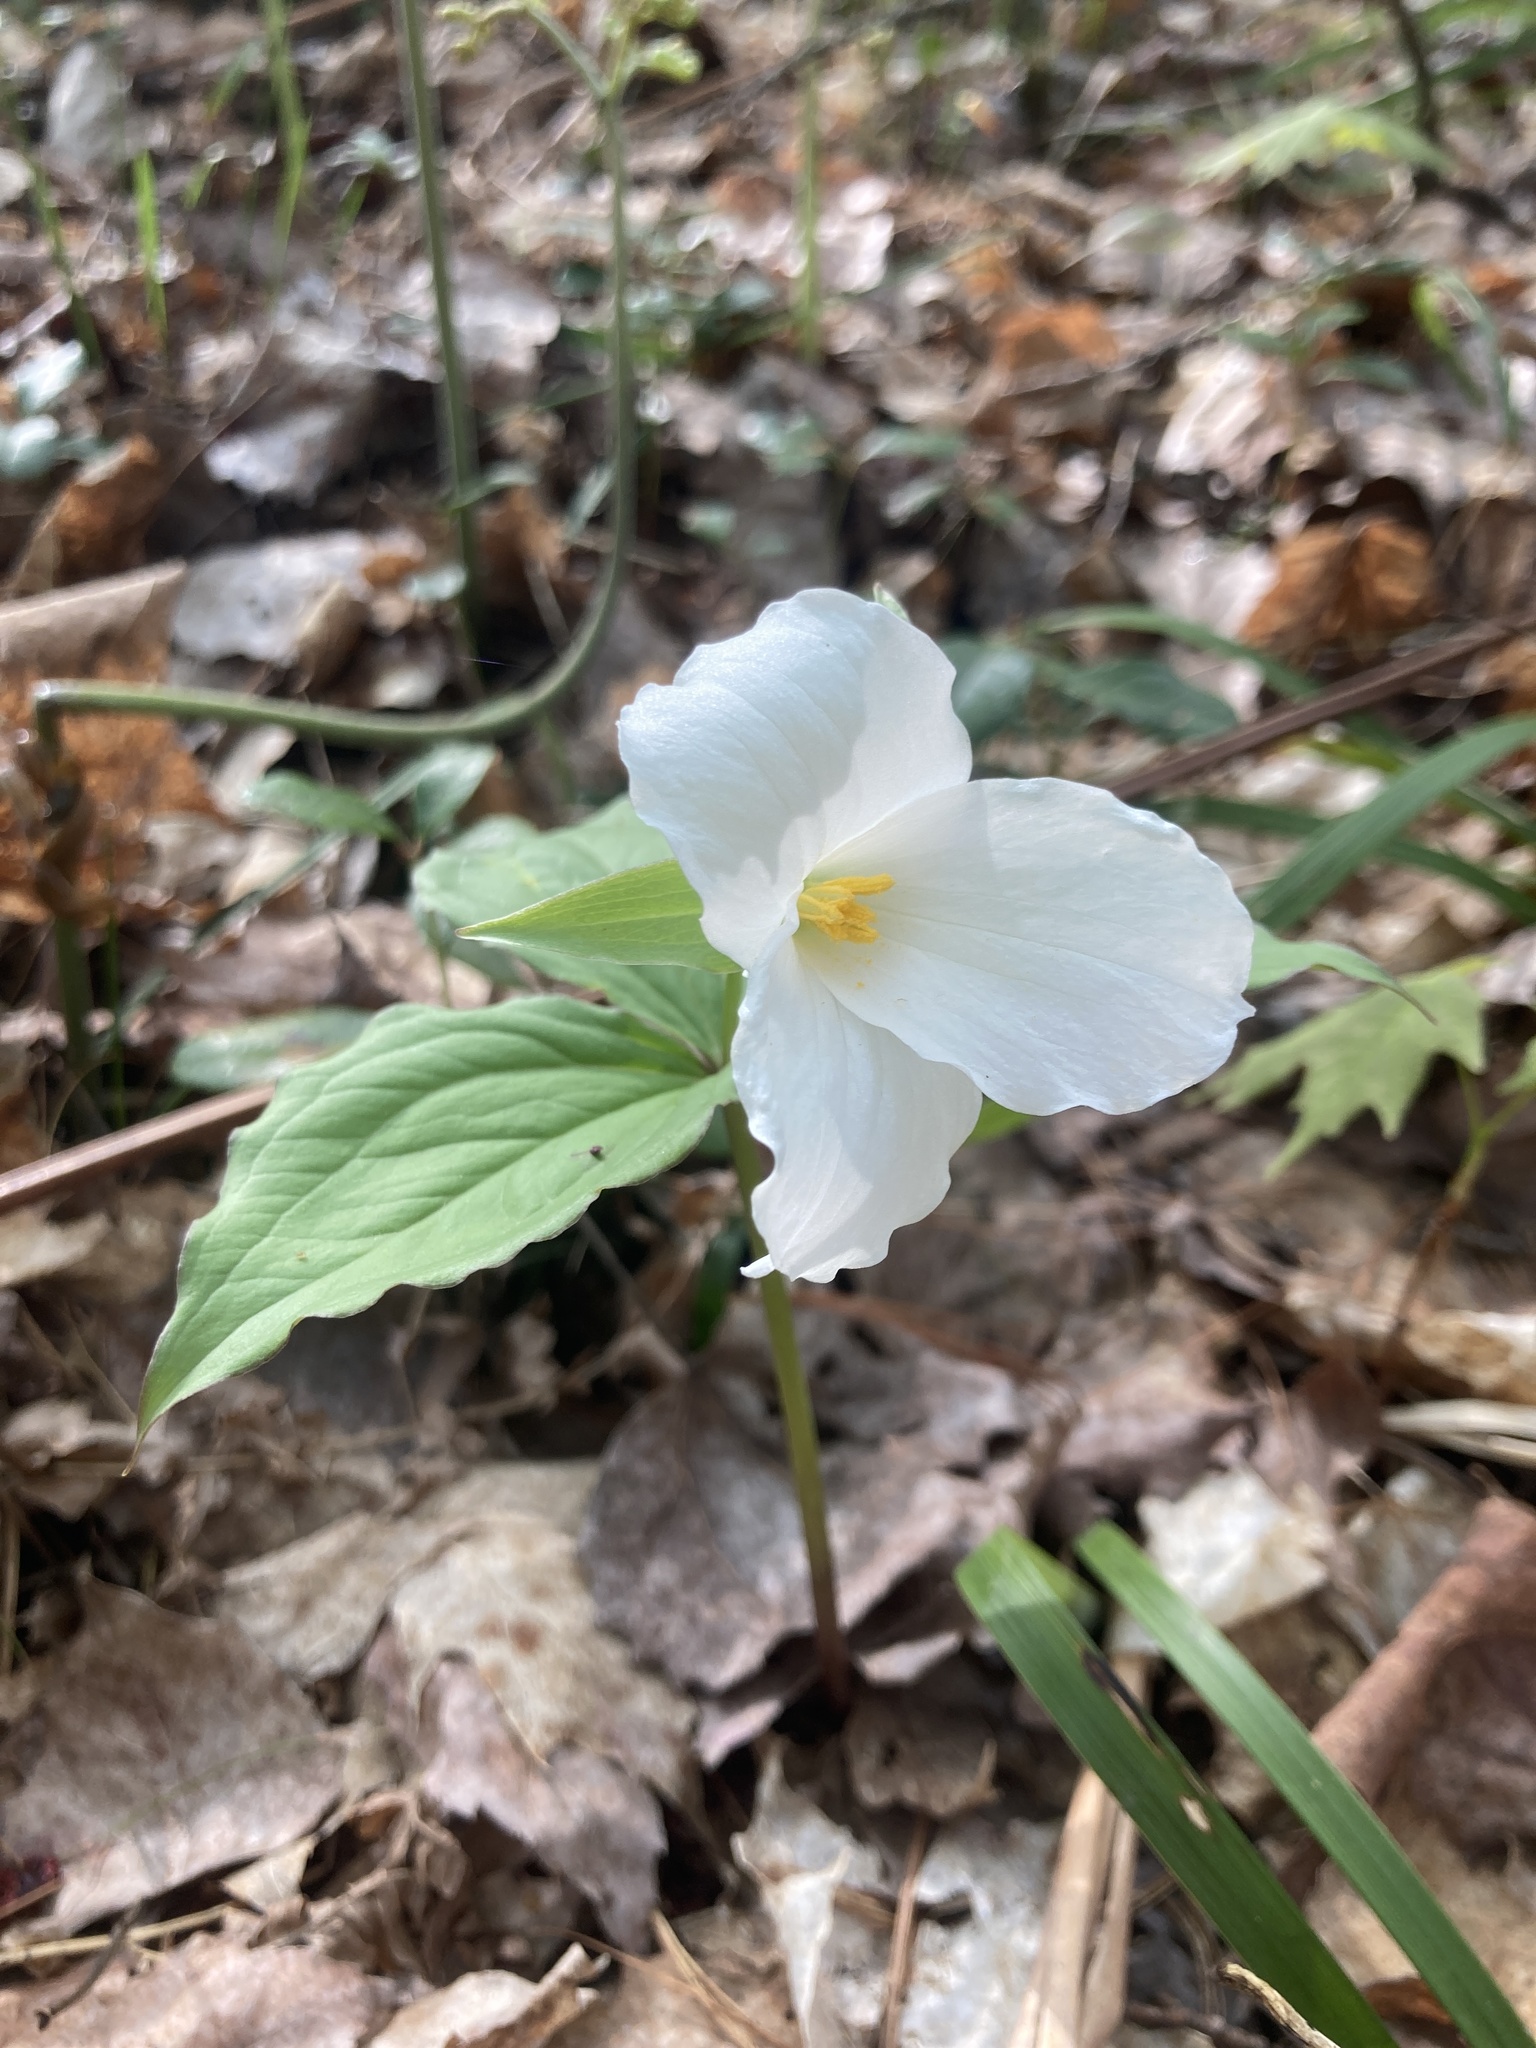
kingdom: Plantae
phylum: Tracheophyta
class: Liliopsida
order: Liliales
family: Melanthiaceae
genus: Trillium
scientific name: Trillium grandiflorum
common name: Great white trillium
